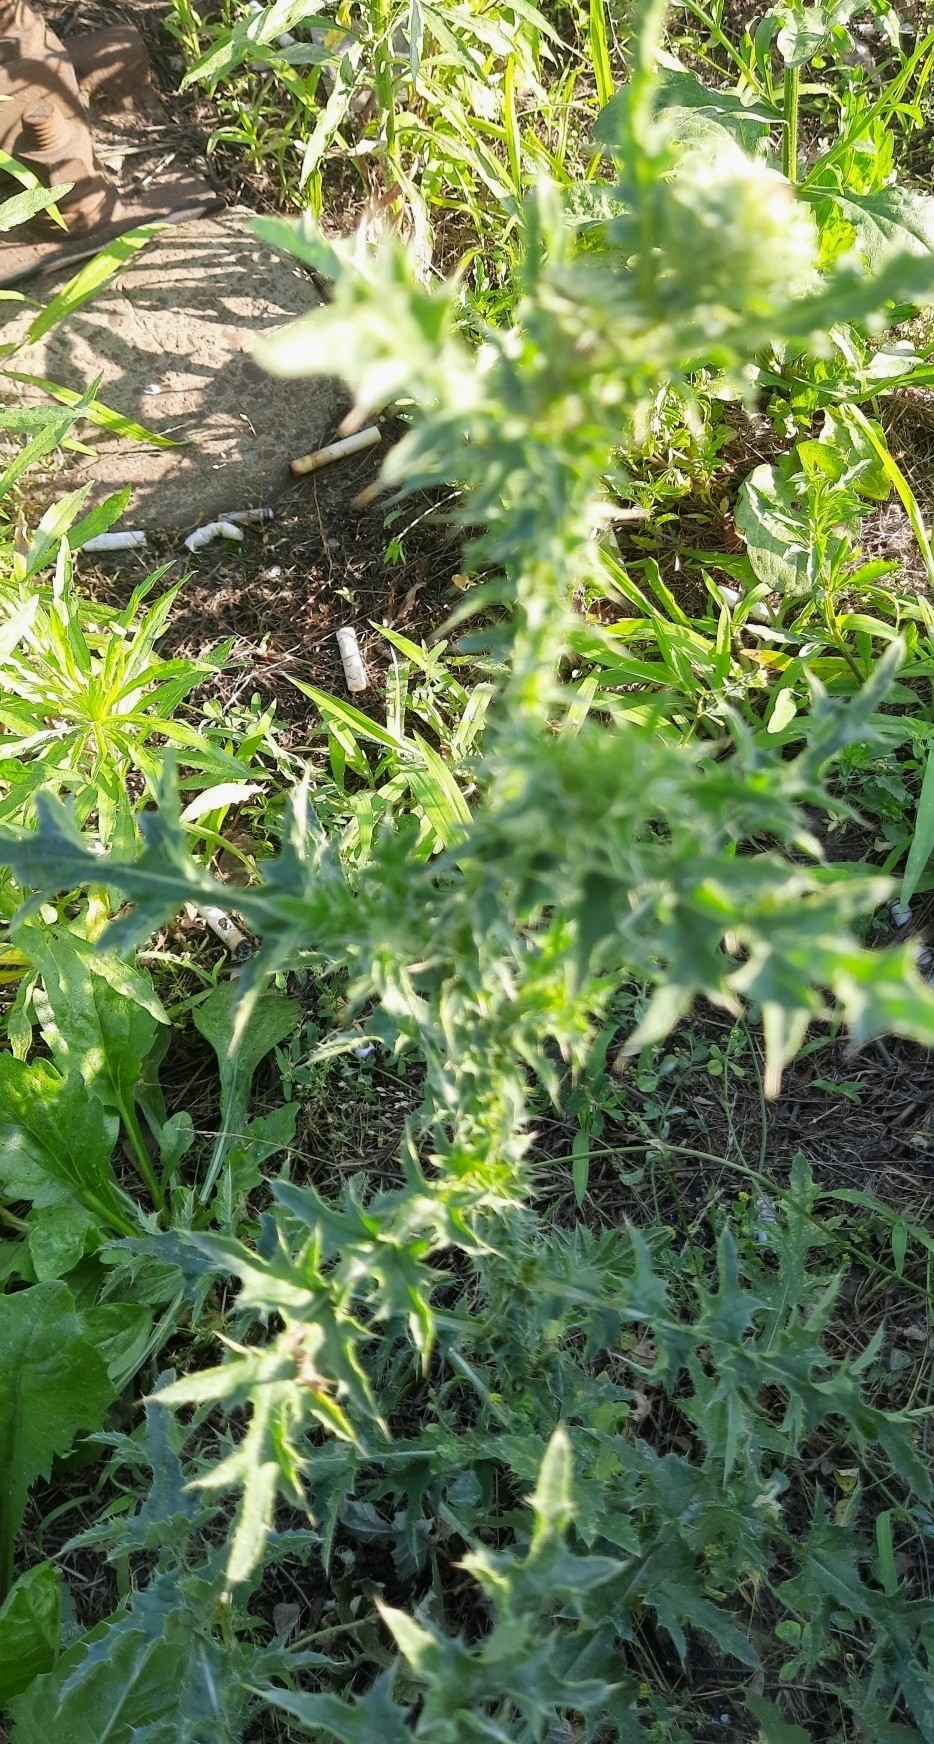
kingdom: Plantae
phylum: Tracheophyta
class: Magnoliopsida
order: Asterales
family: Asteraceae
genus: Carduus
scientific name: Carduus acanthoides
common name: Plumeless thistle
